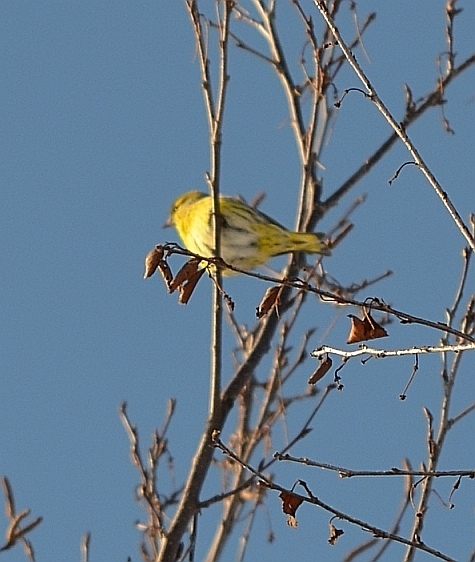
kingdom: Animalia
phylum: Chordata
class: Aves
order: Passeriformes
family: Fringillidae
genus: Spinus
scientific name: Spinus spinus
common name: Eurasian siskin
